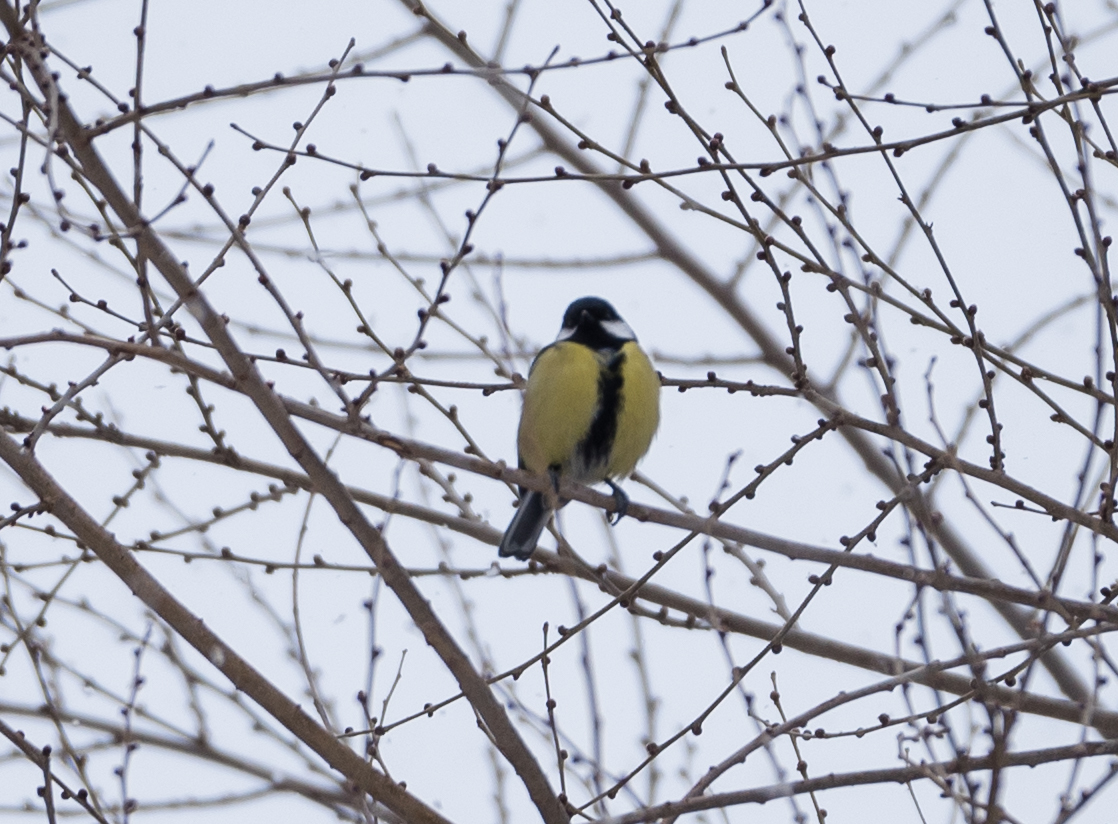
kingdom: Animalia
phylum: Chordata
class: Aves
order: Passeriformes
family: Paridae
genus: Parus
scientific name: Parus major
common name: Great tit
